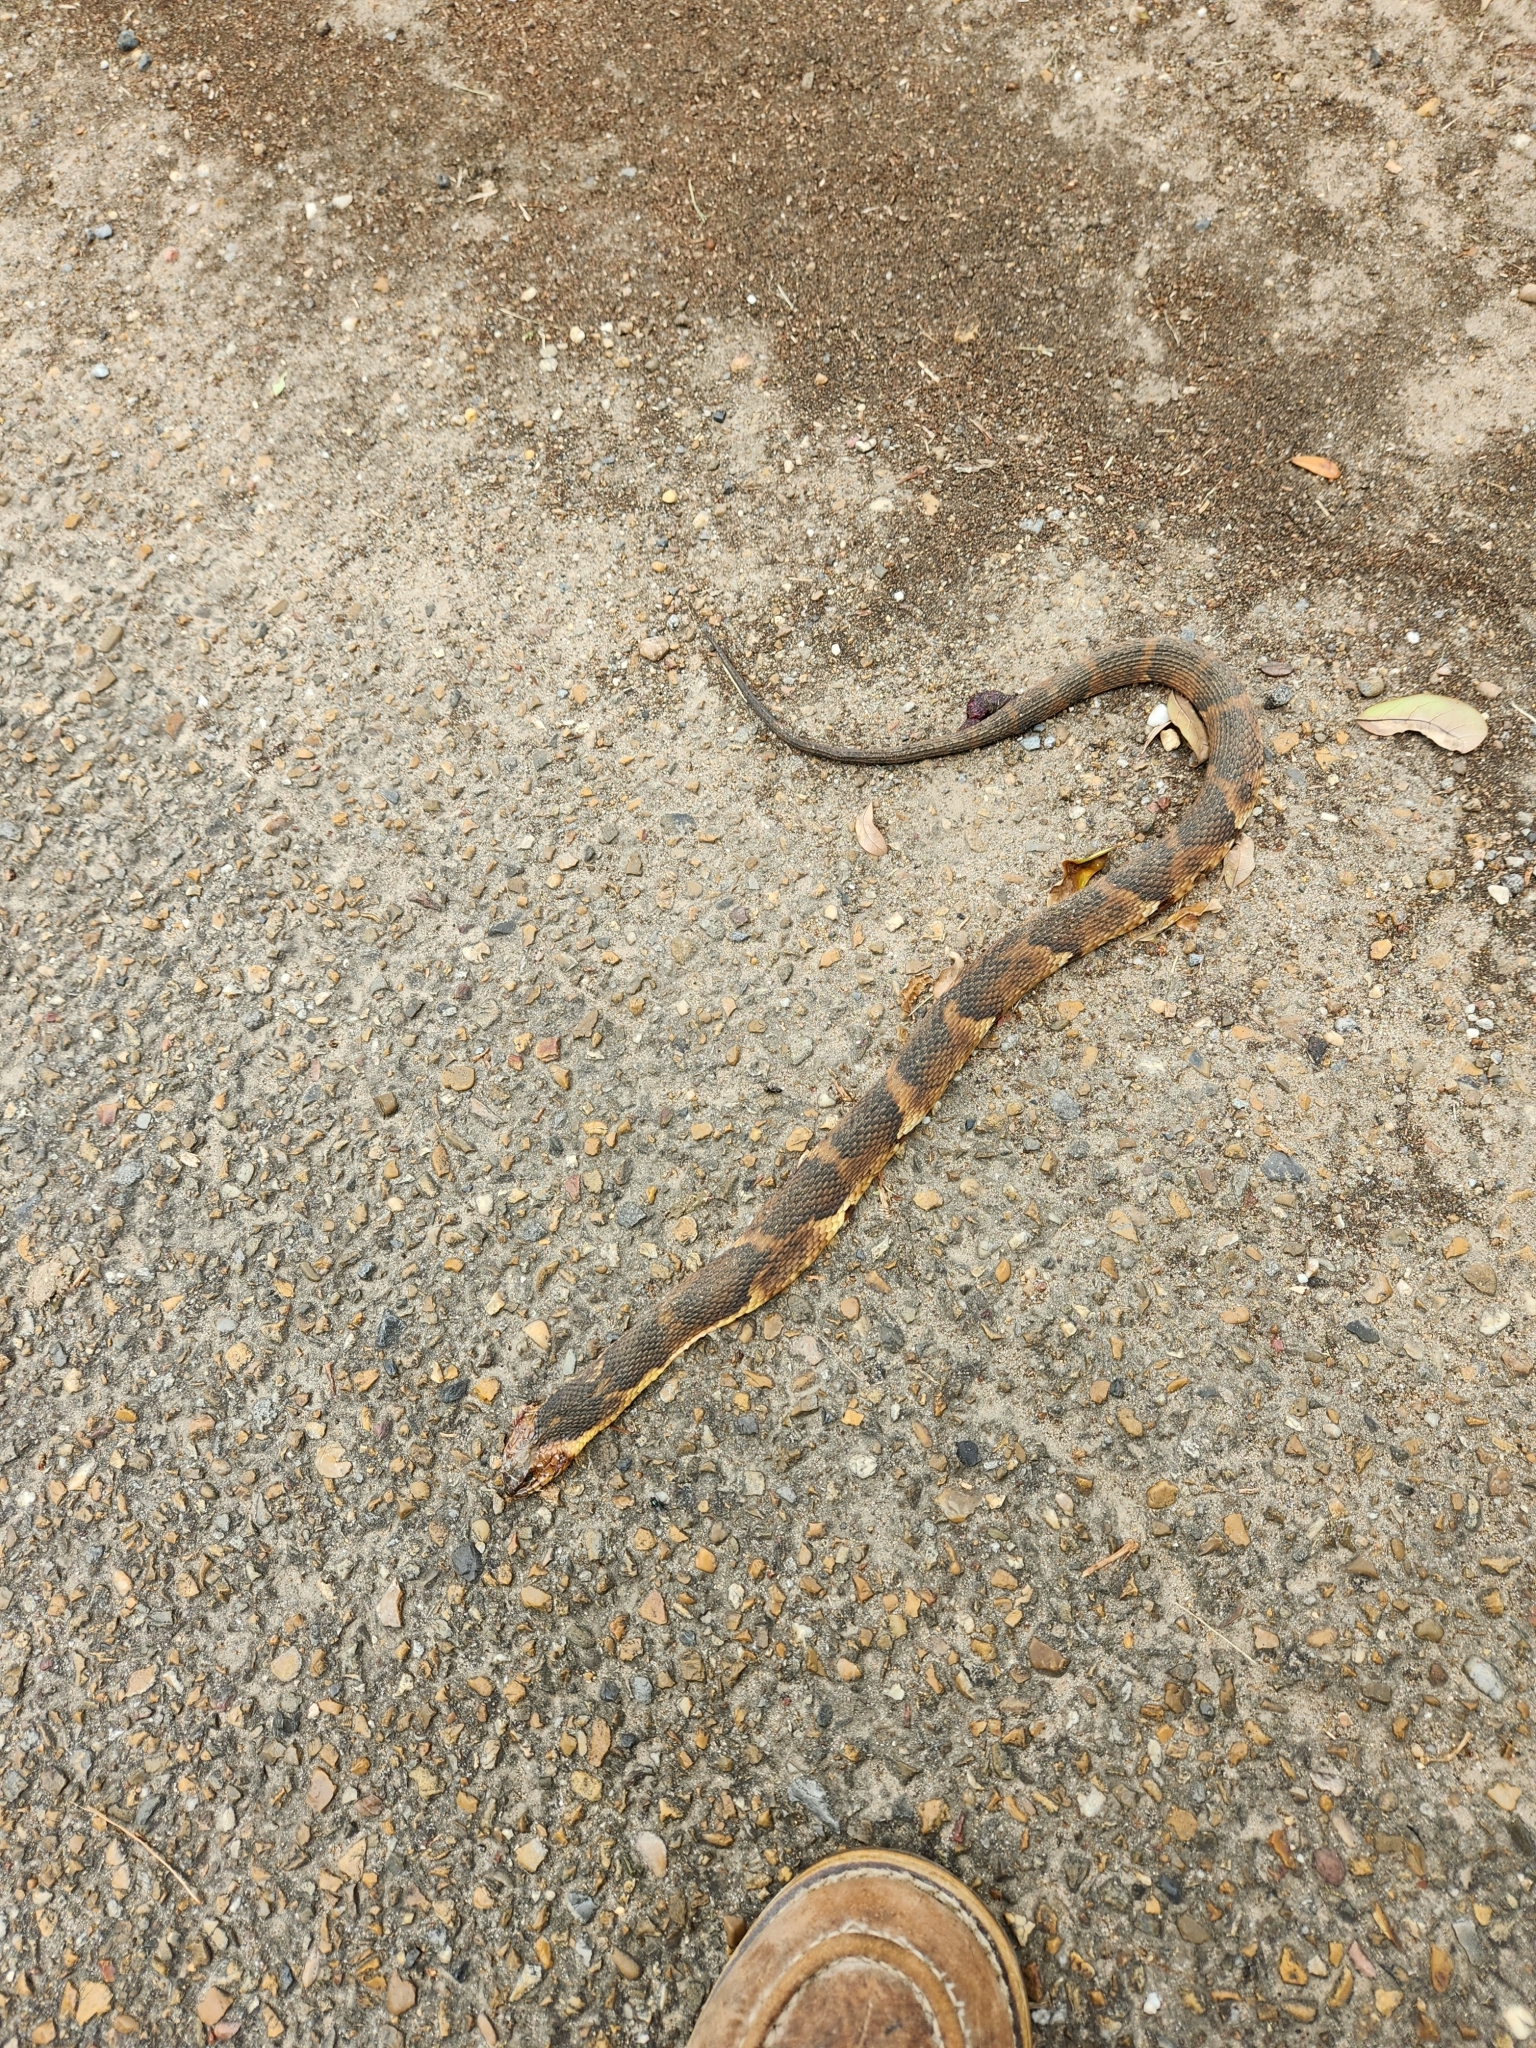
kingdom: Animalia
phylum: Chordata
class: Squamata
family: Colubridae
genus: Nerodia
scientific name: Nerodia fasciata
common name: Southern water snake
